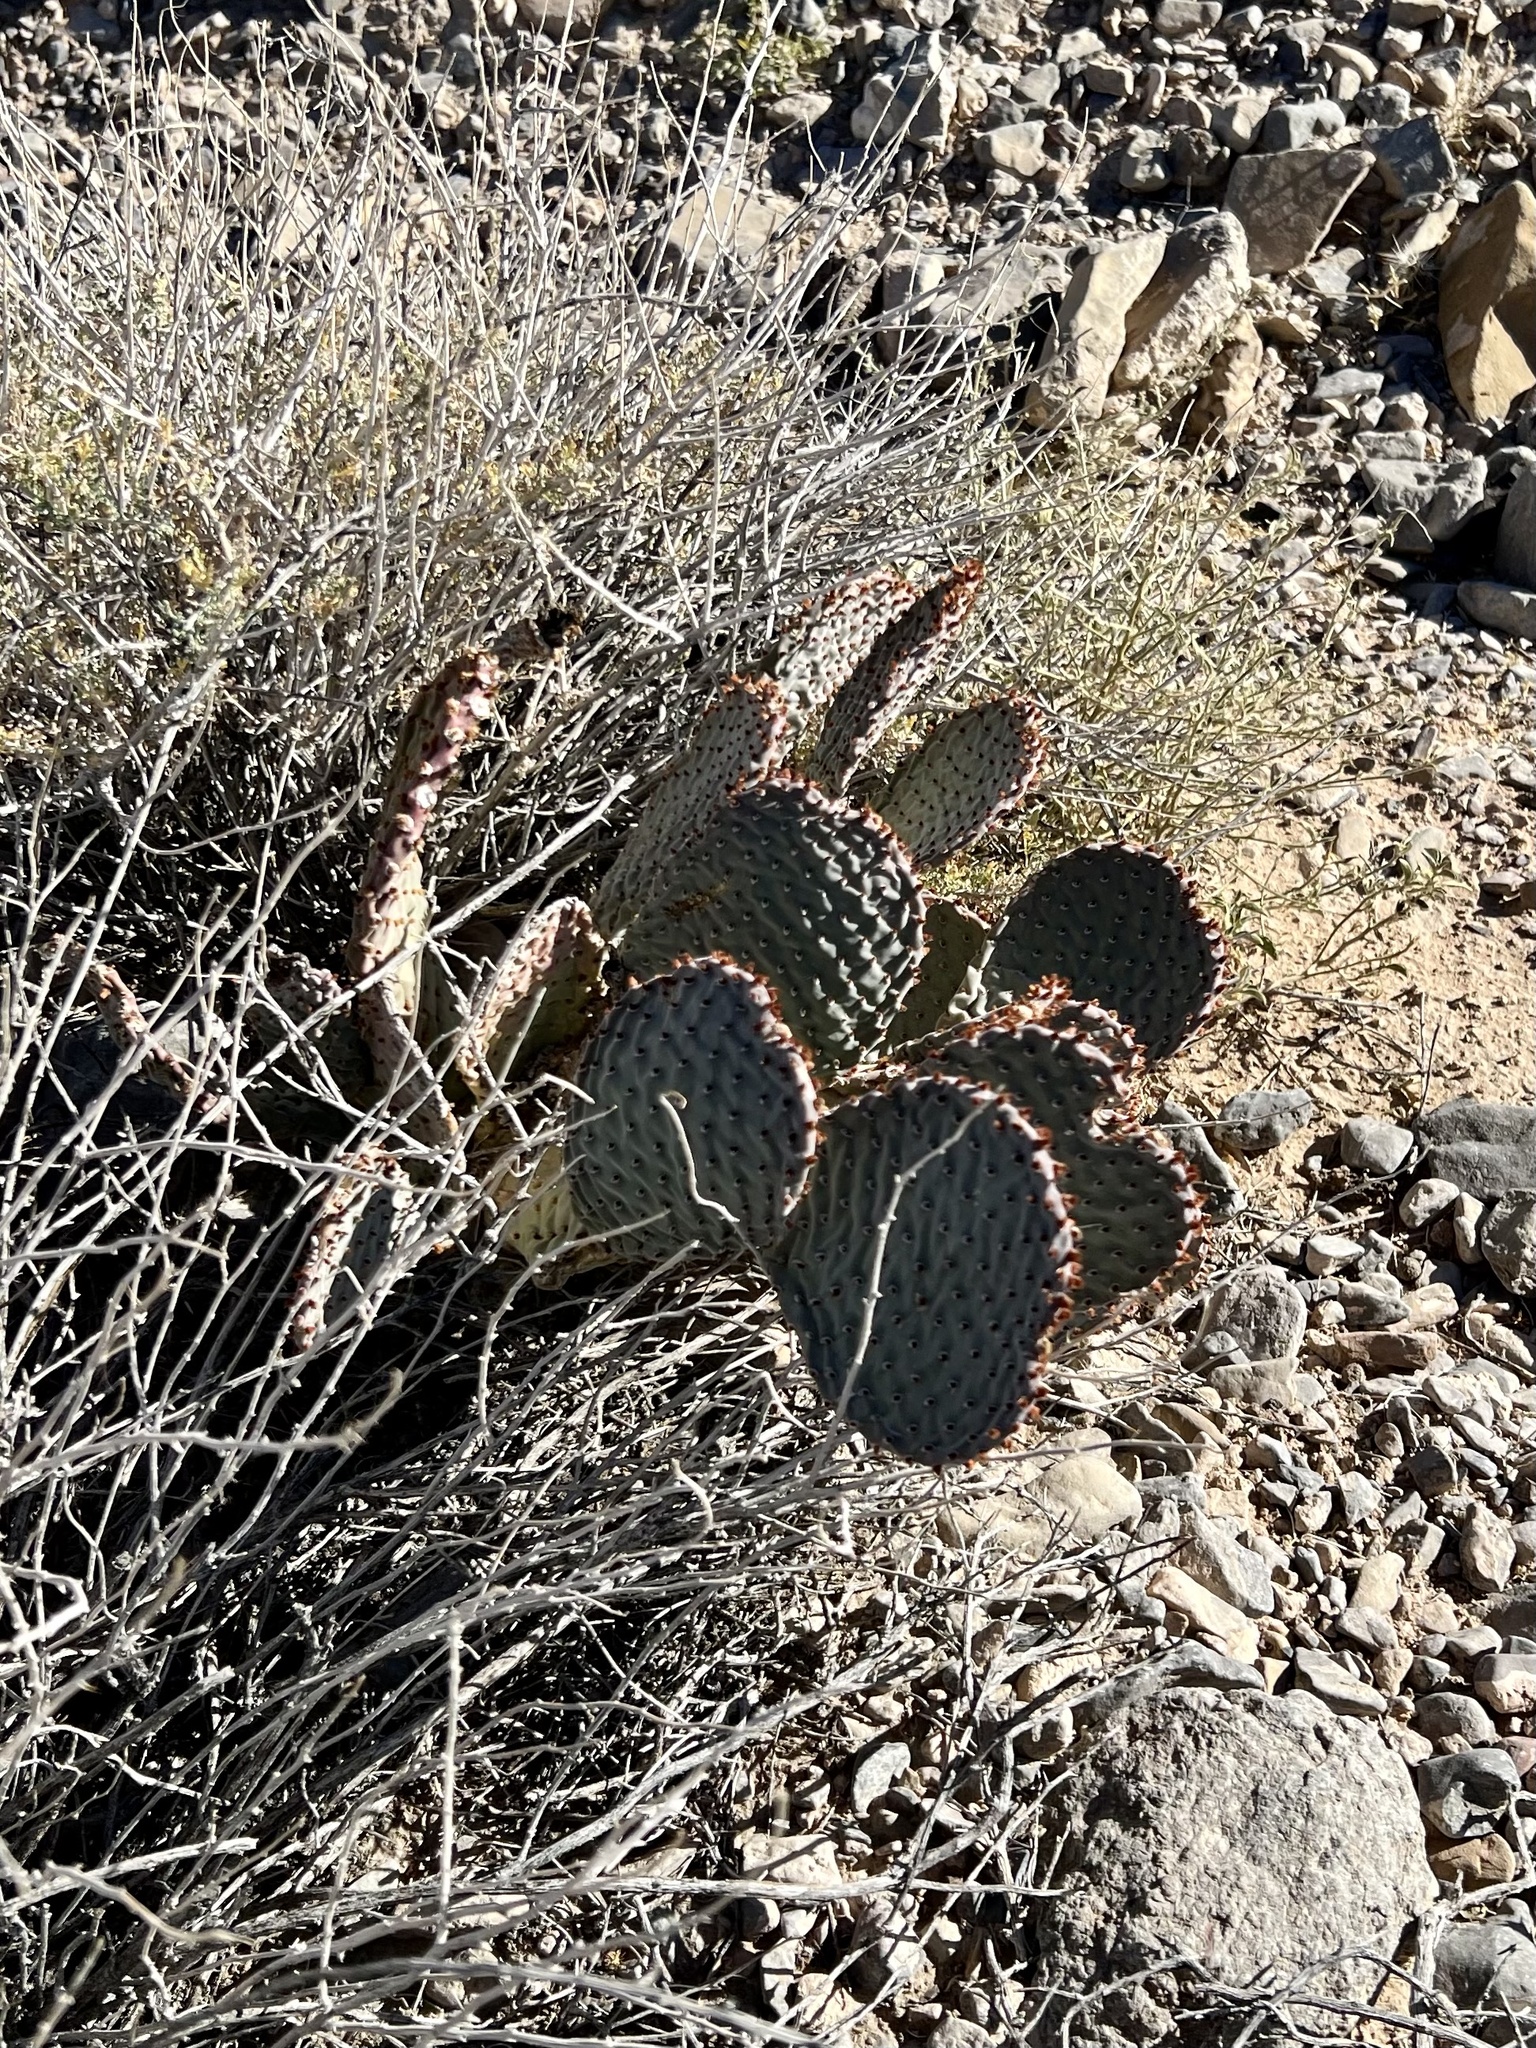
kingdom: Plantae
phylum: Tracheophyta
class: Magnoliopsida
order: Caryophyllales
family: Cactaceae
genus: Opuntia
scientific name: Opuntia basilaris
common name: Beavertail prickly-pear
